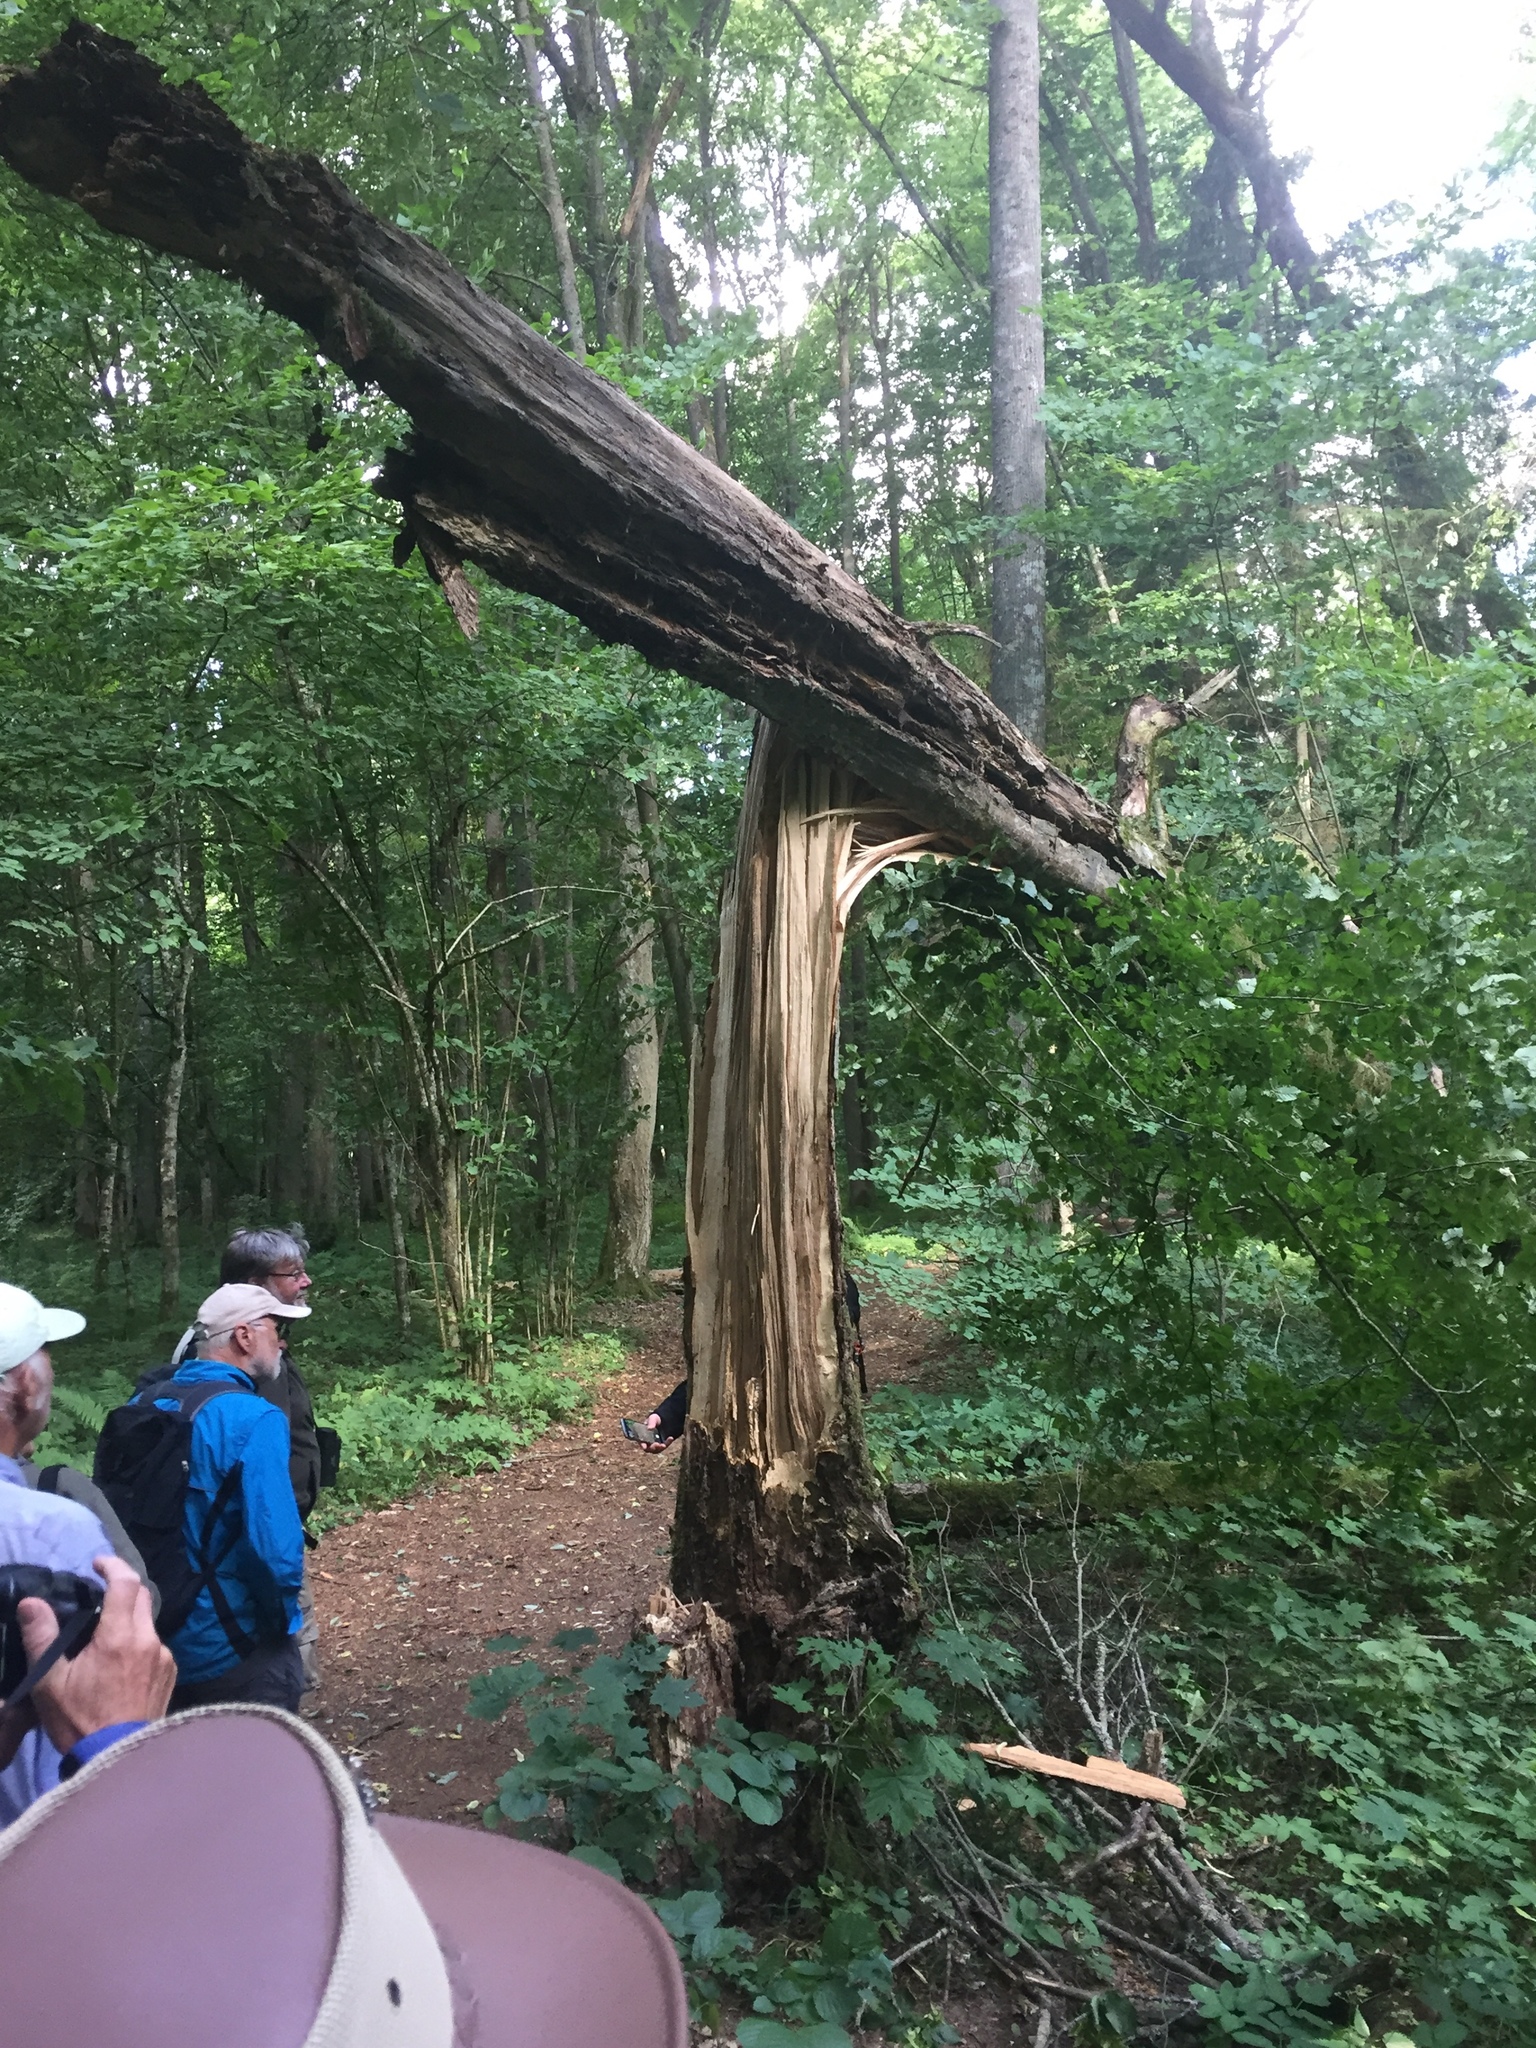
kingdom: Plantae
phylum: Tracheophyta
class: Magnoliopsida
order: Fagales
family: Betulaceae
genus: Carpinus
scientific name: Carpinus betulus
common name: Hornbeam
